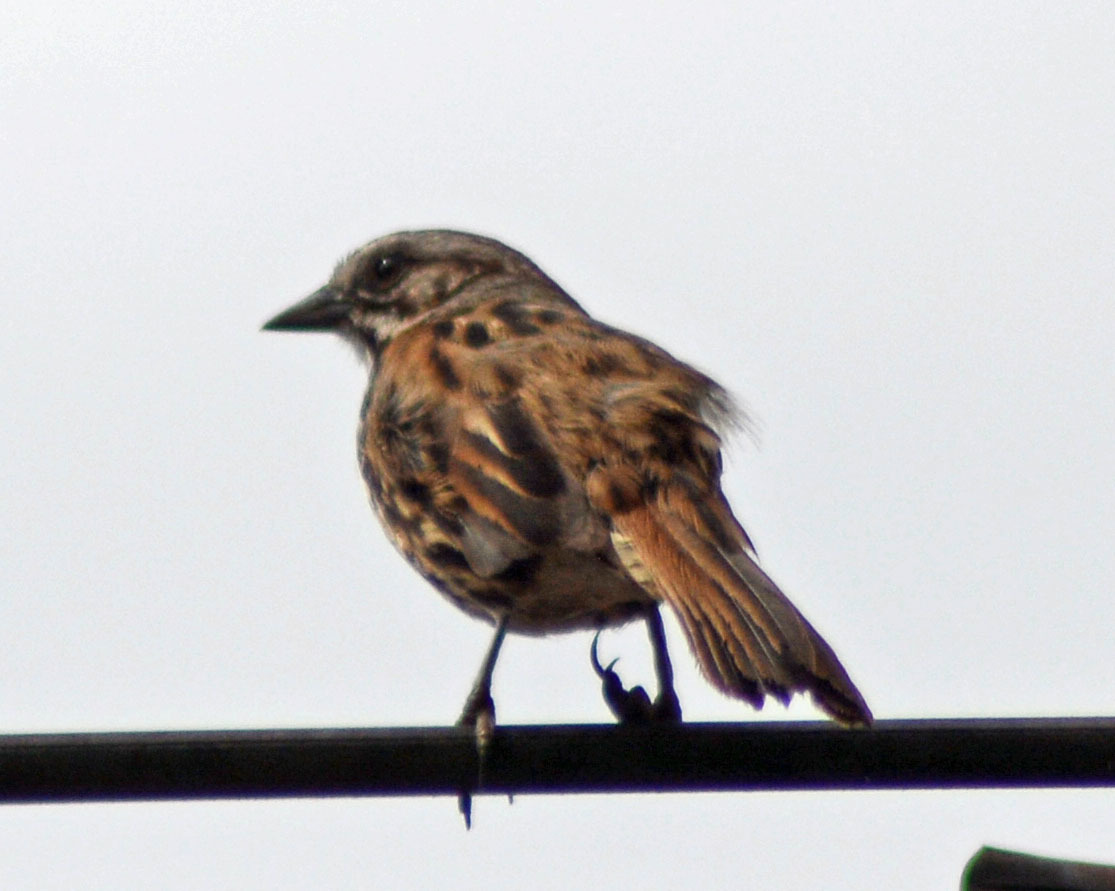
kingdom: Animalia
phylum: Chordata
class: Aves
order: Passeriformes
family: Passerellidae
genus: Melospiza
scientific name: Melospiza melodia
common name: Song sparrow
